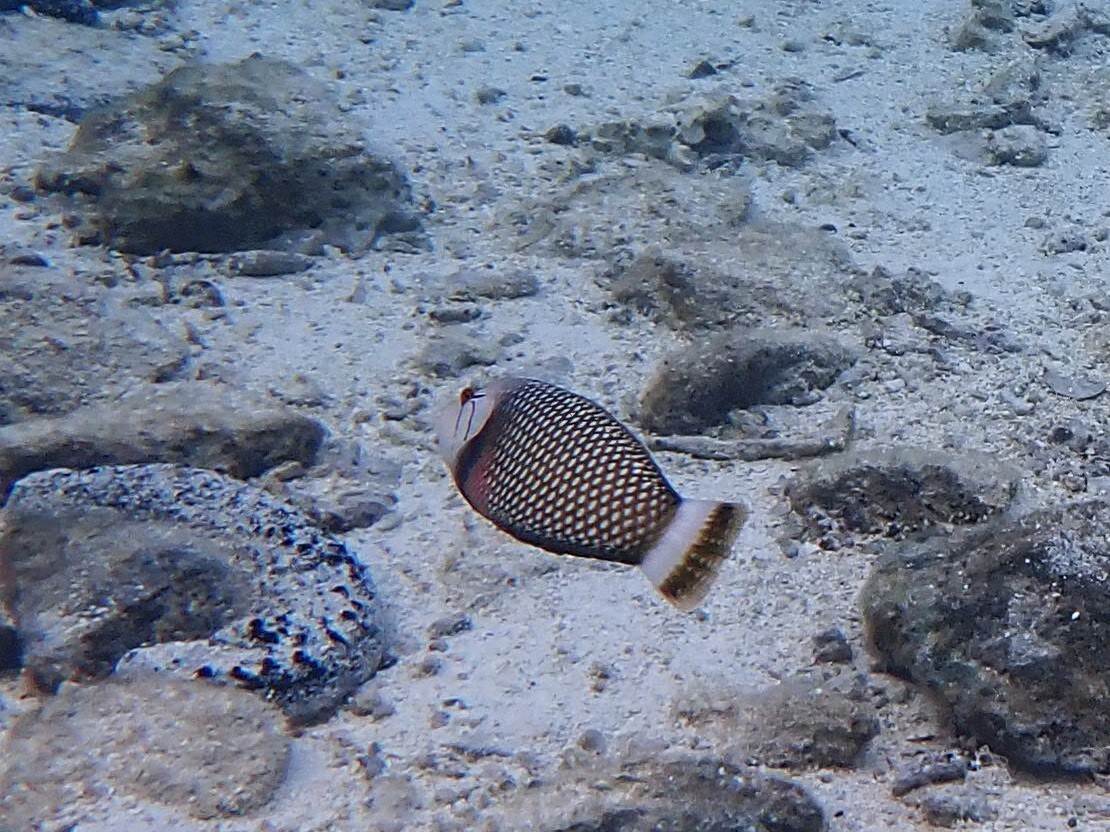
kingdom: Animalia
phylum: Chordata
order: Perciformes
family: Labridae
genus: Novaculichthys
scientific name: Novaculichthys taeniourus
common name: Rockmover wrasse
